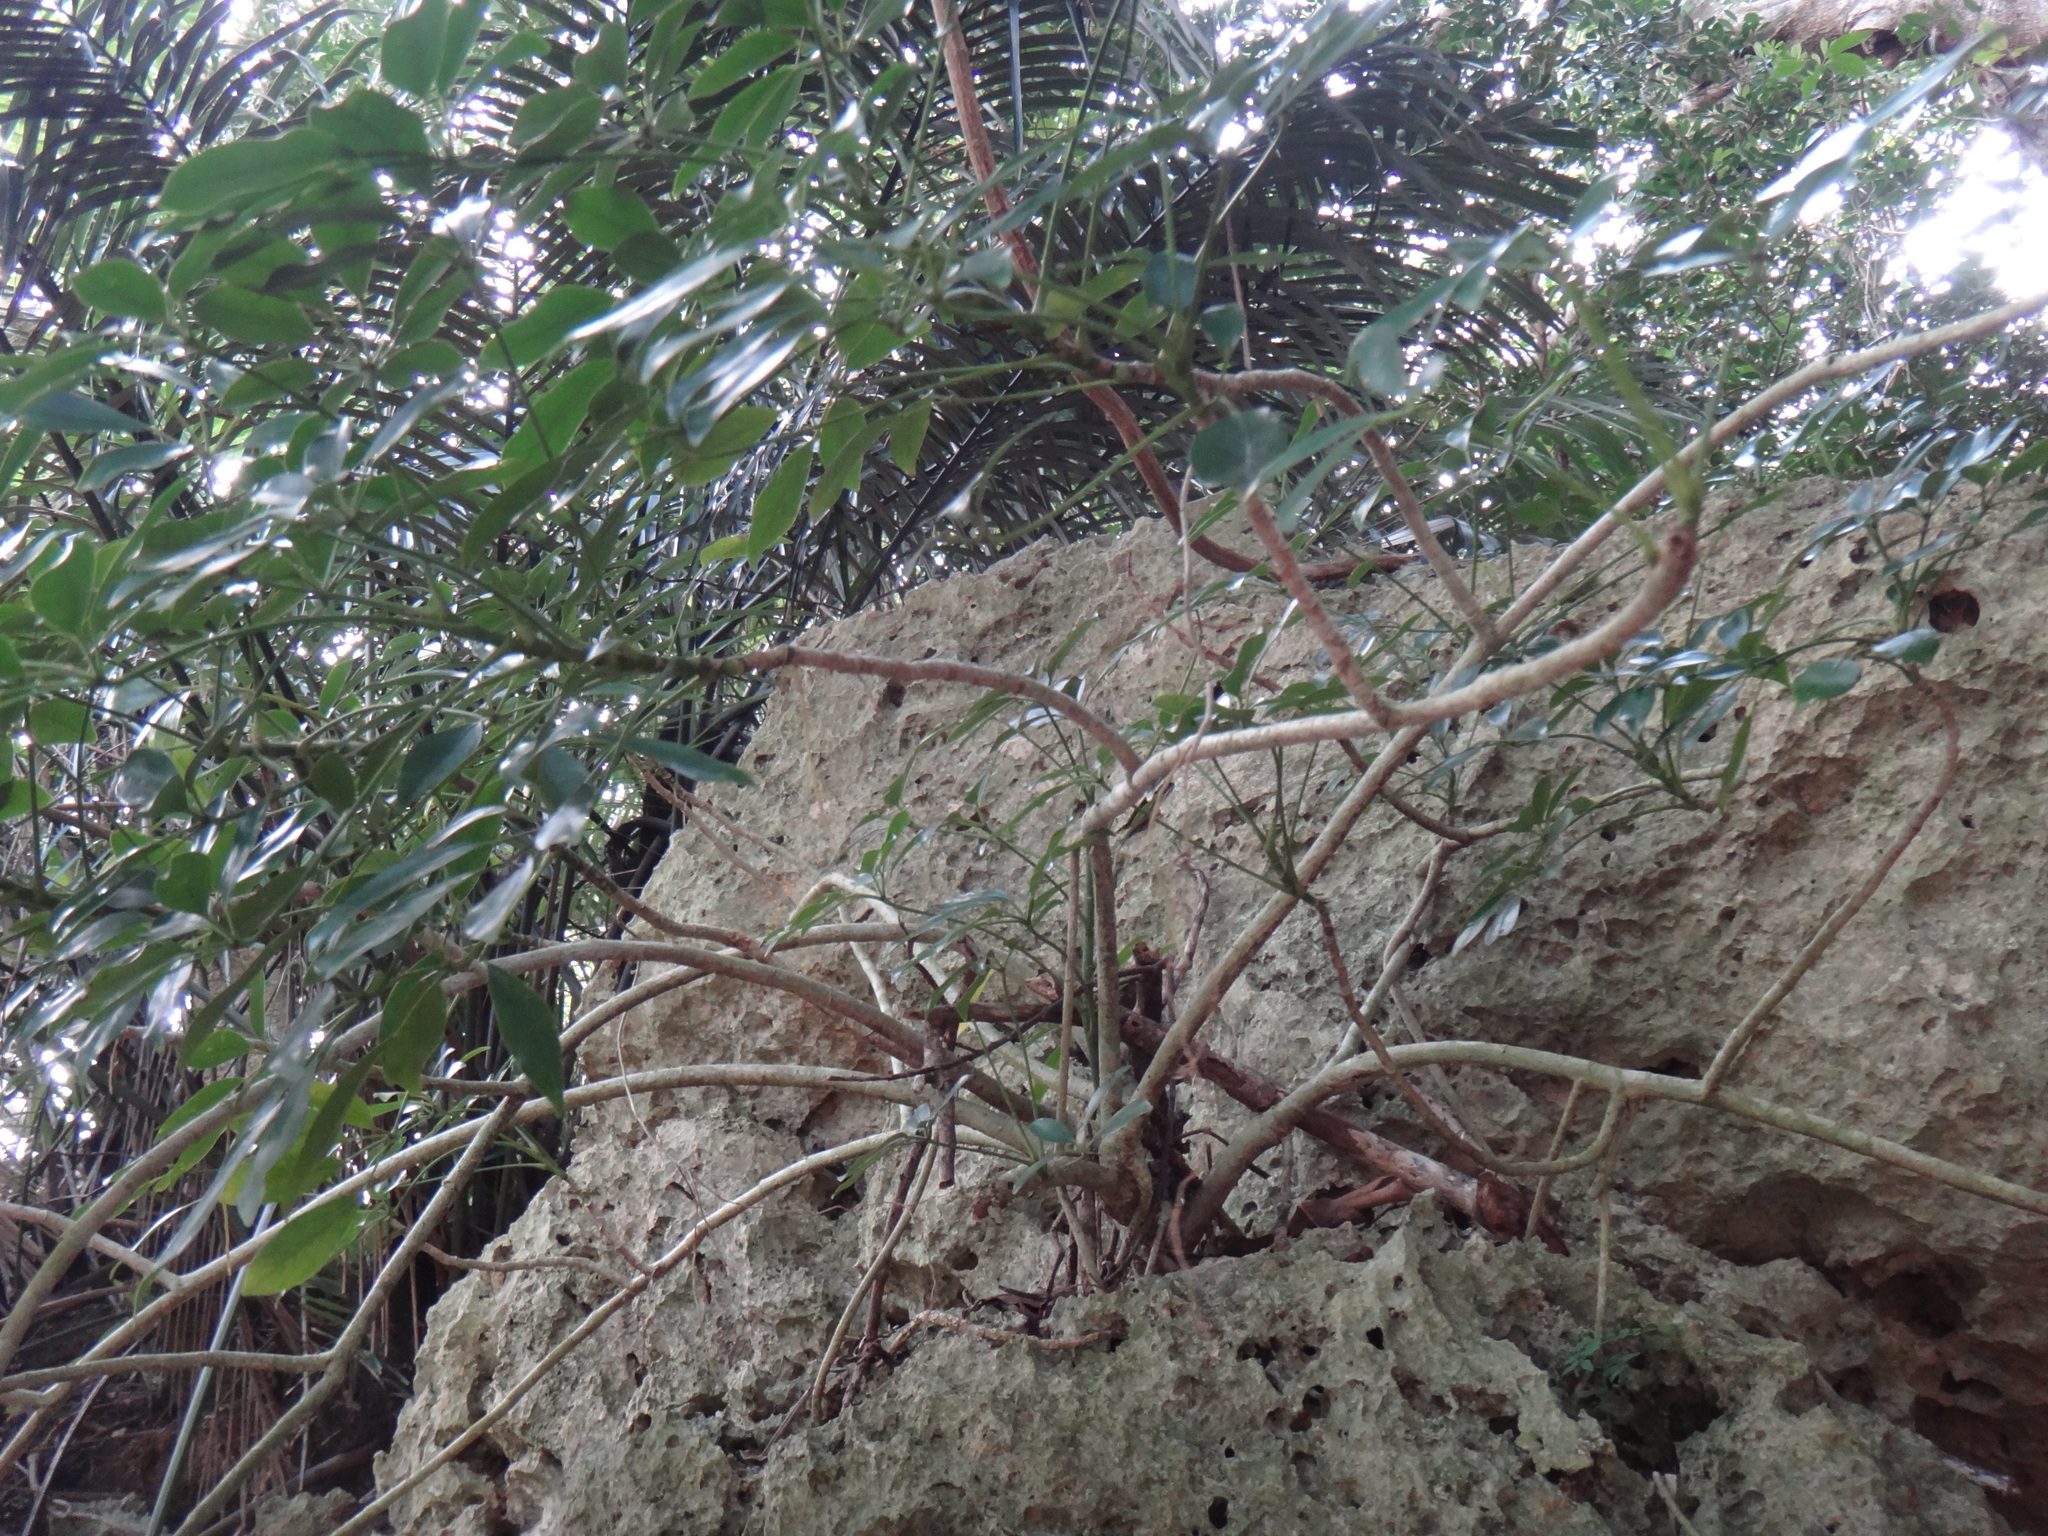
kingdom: Plantae
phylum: Tracheophyta
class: Magnoliopsida
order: Apiales
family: Araliaceae
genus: Heptapleurum
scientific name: Heptapleurum arboricola
